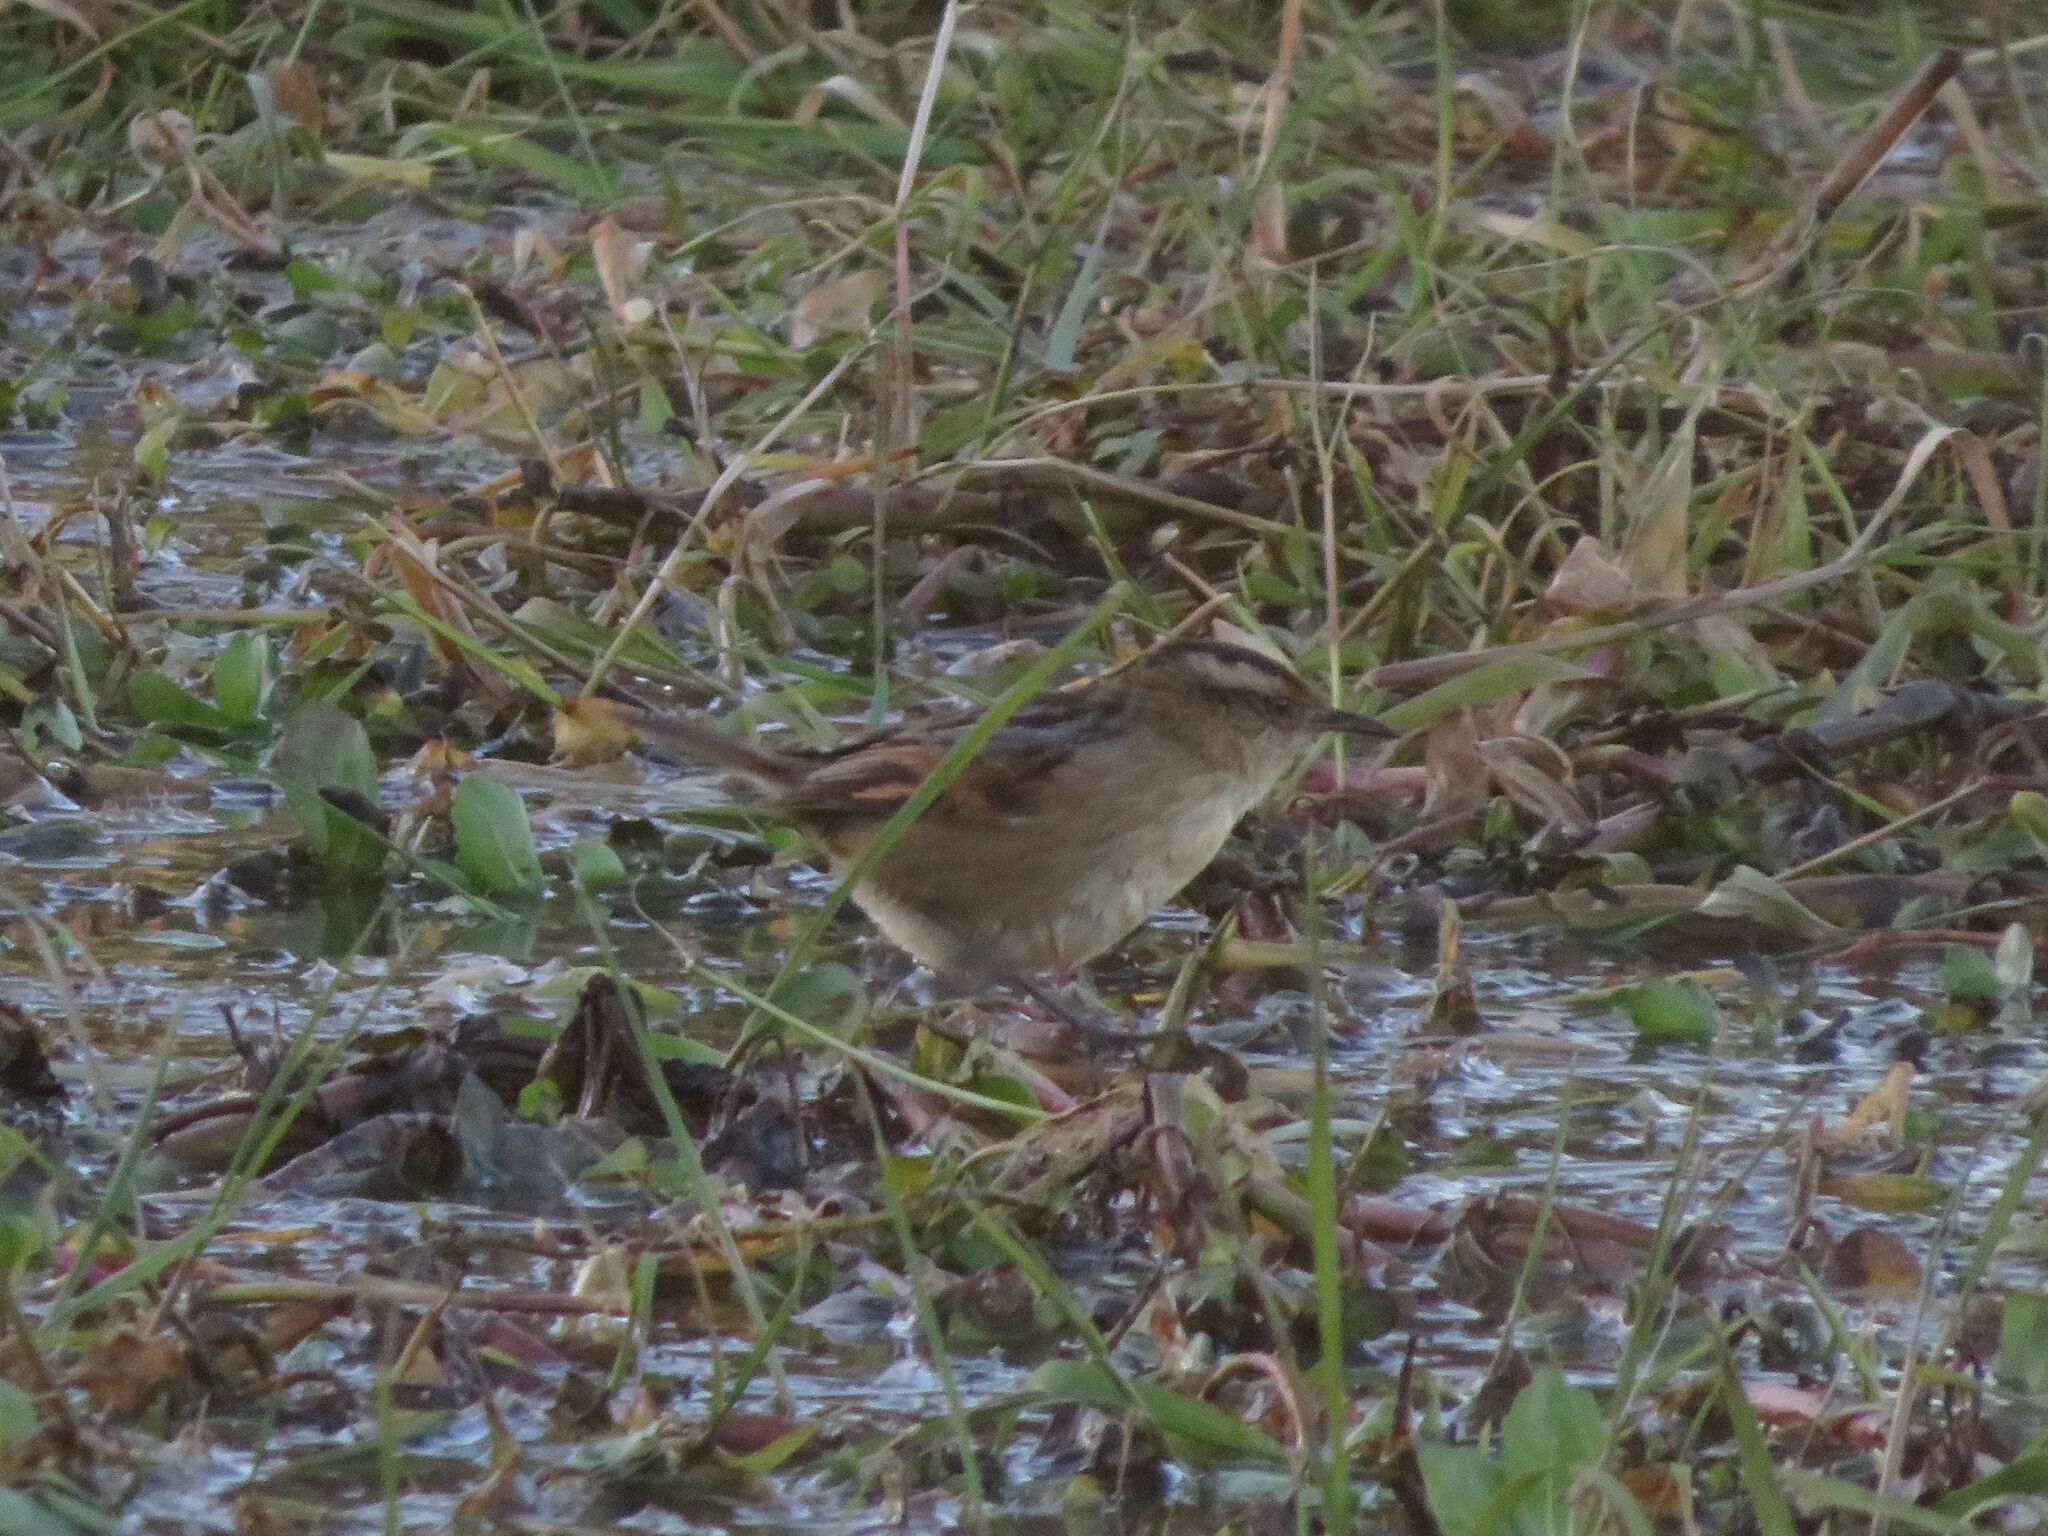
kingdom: Animalia
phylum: Chordata
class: Aves
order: Passeriformes
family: Furnariidae
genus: Phleocryptes
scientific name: Phleocryptes melanops
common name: Wren-like rushbird
